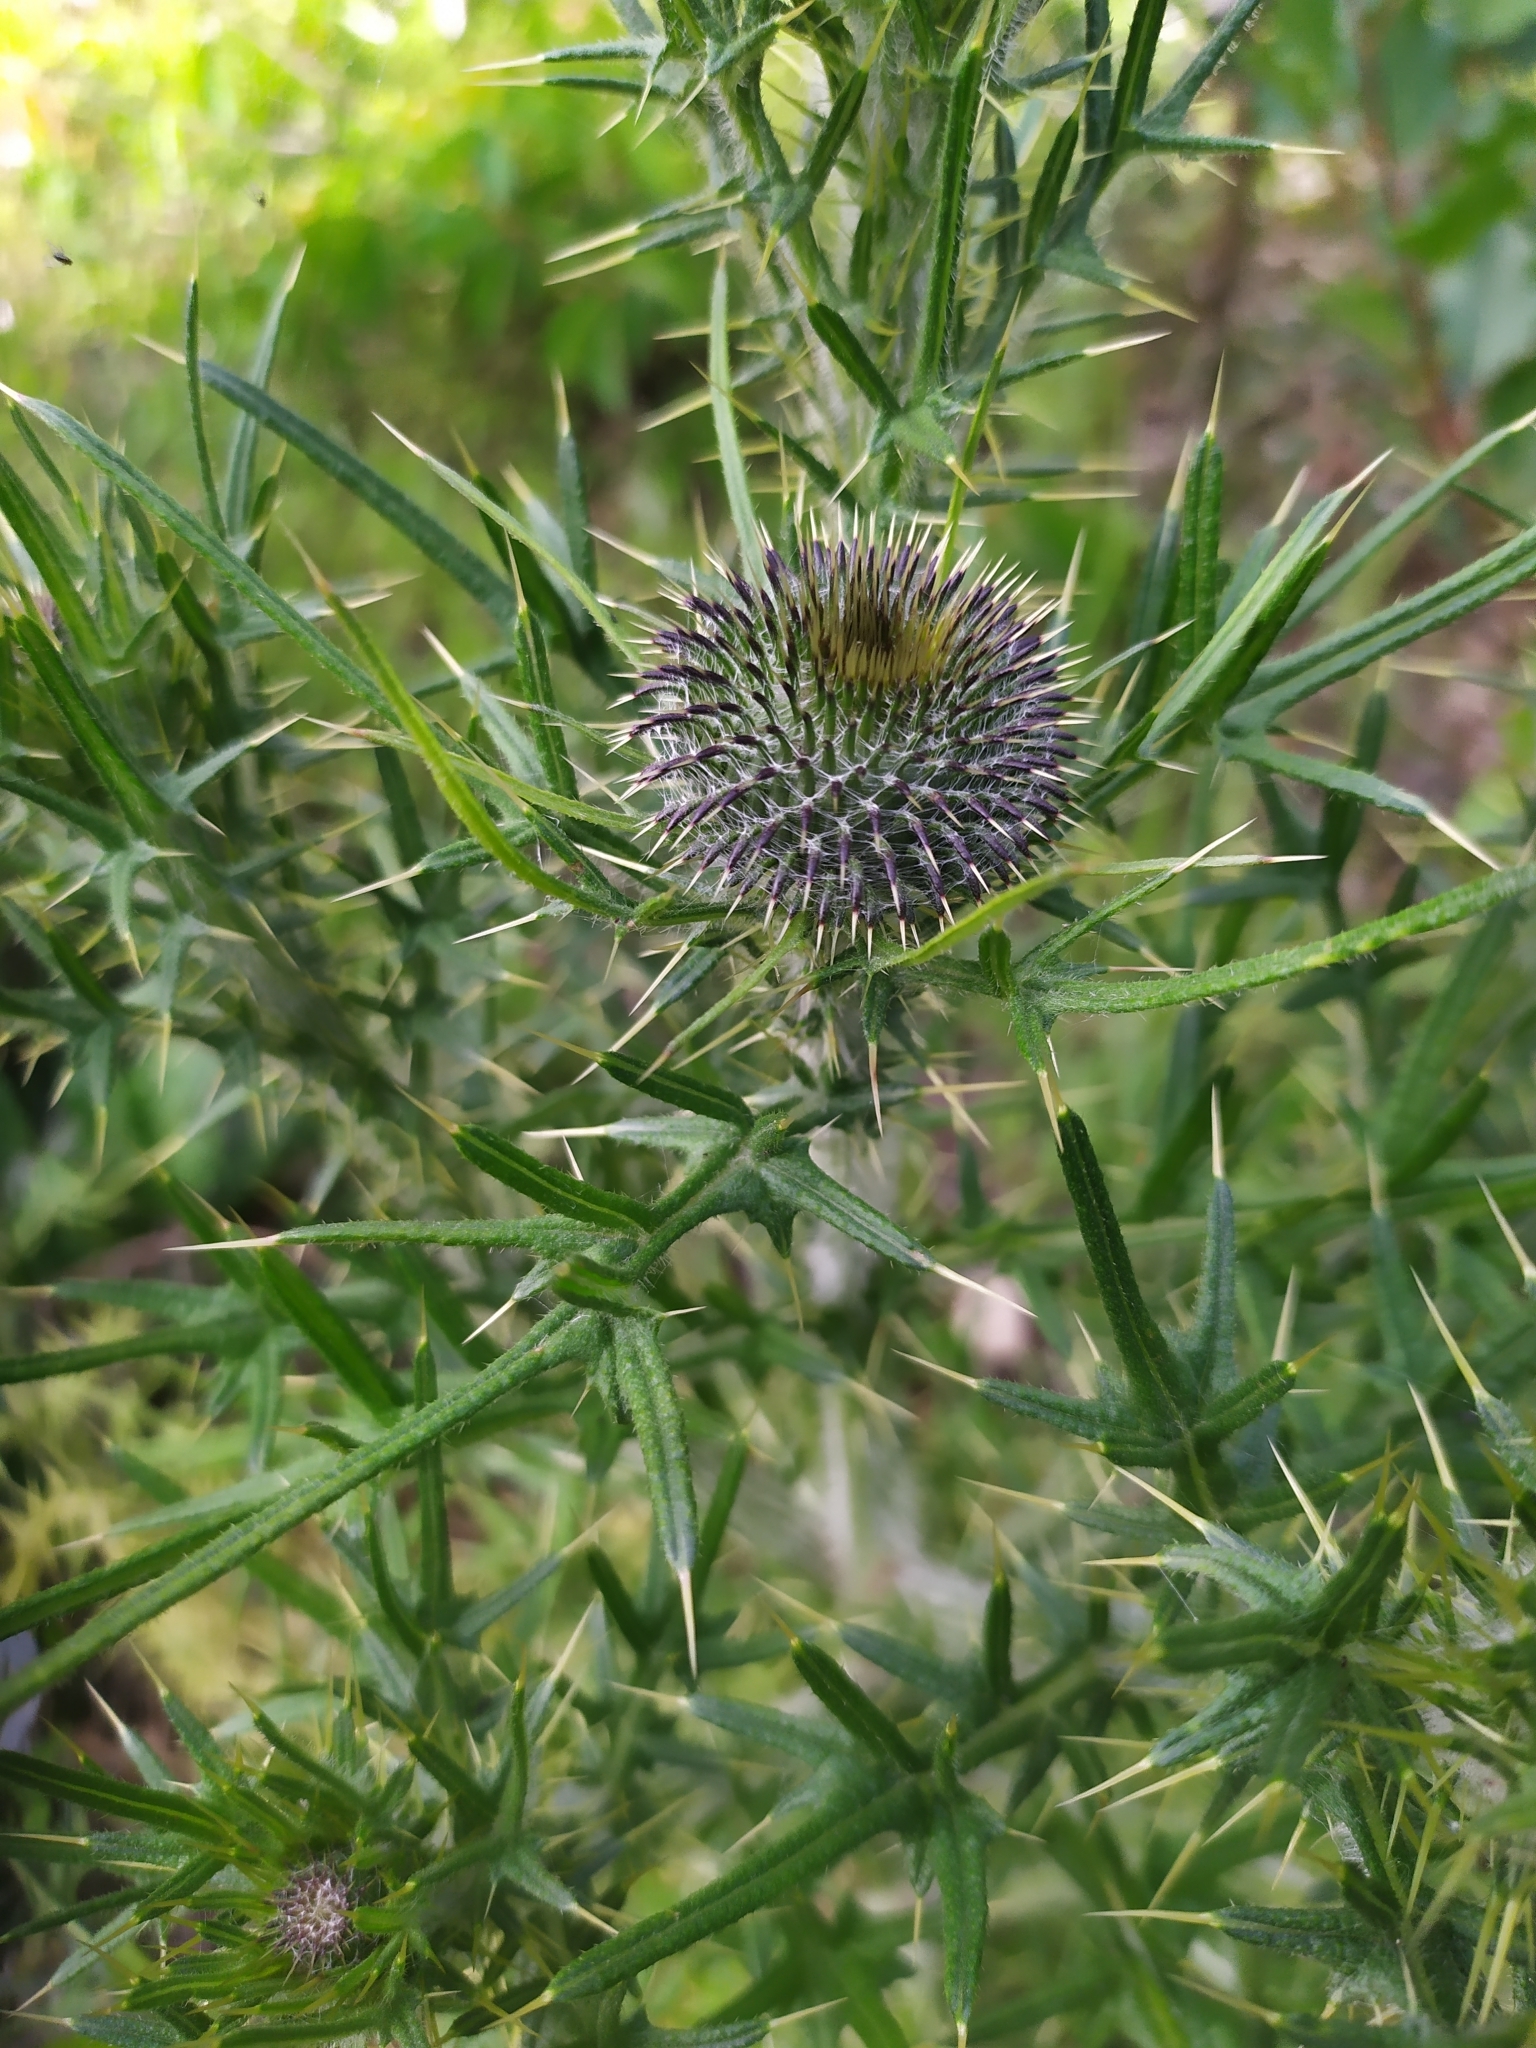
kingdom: Plantae
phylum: Tracheophyta
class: Magnoliopsida
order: Asterales
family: Asteraceae
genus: Cirsium
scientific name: Cirsium vulgare
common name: Bull thistle
